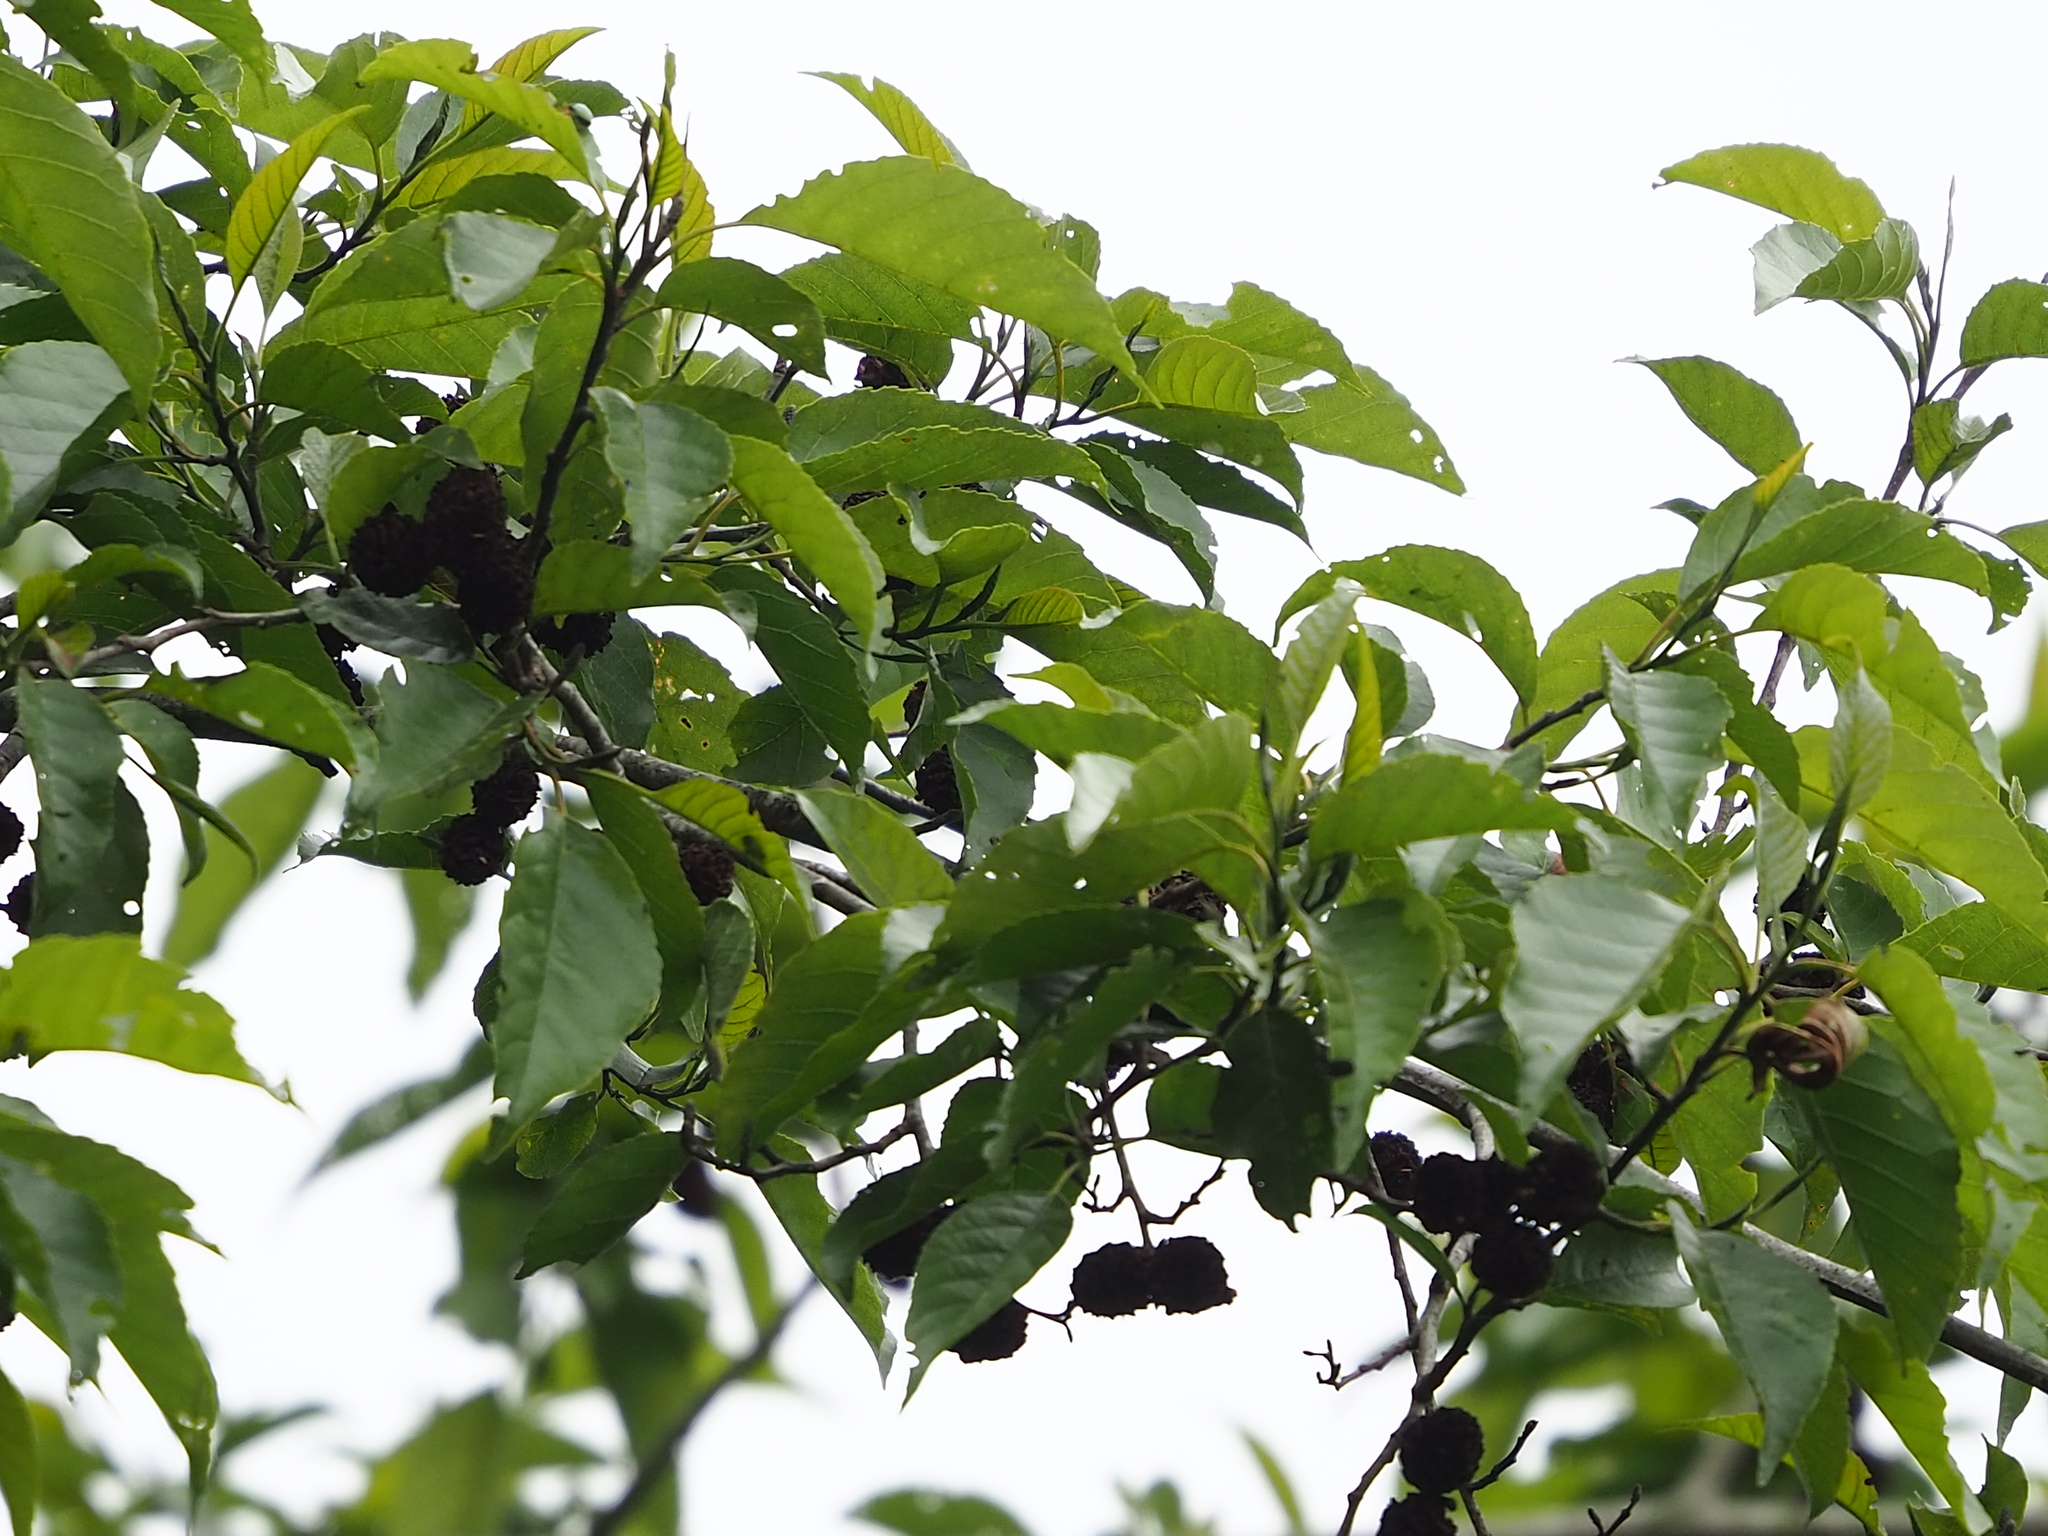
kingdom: Plantae
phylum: Tracheophyta
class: Magnoliopsida
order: Fagales
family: Betulaceae
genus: Alnus
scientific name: Alnus formosana
